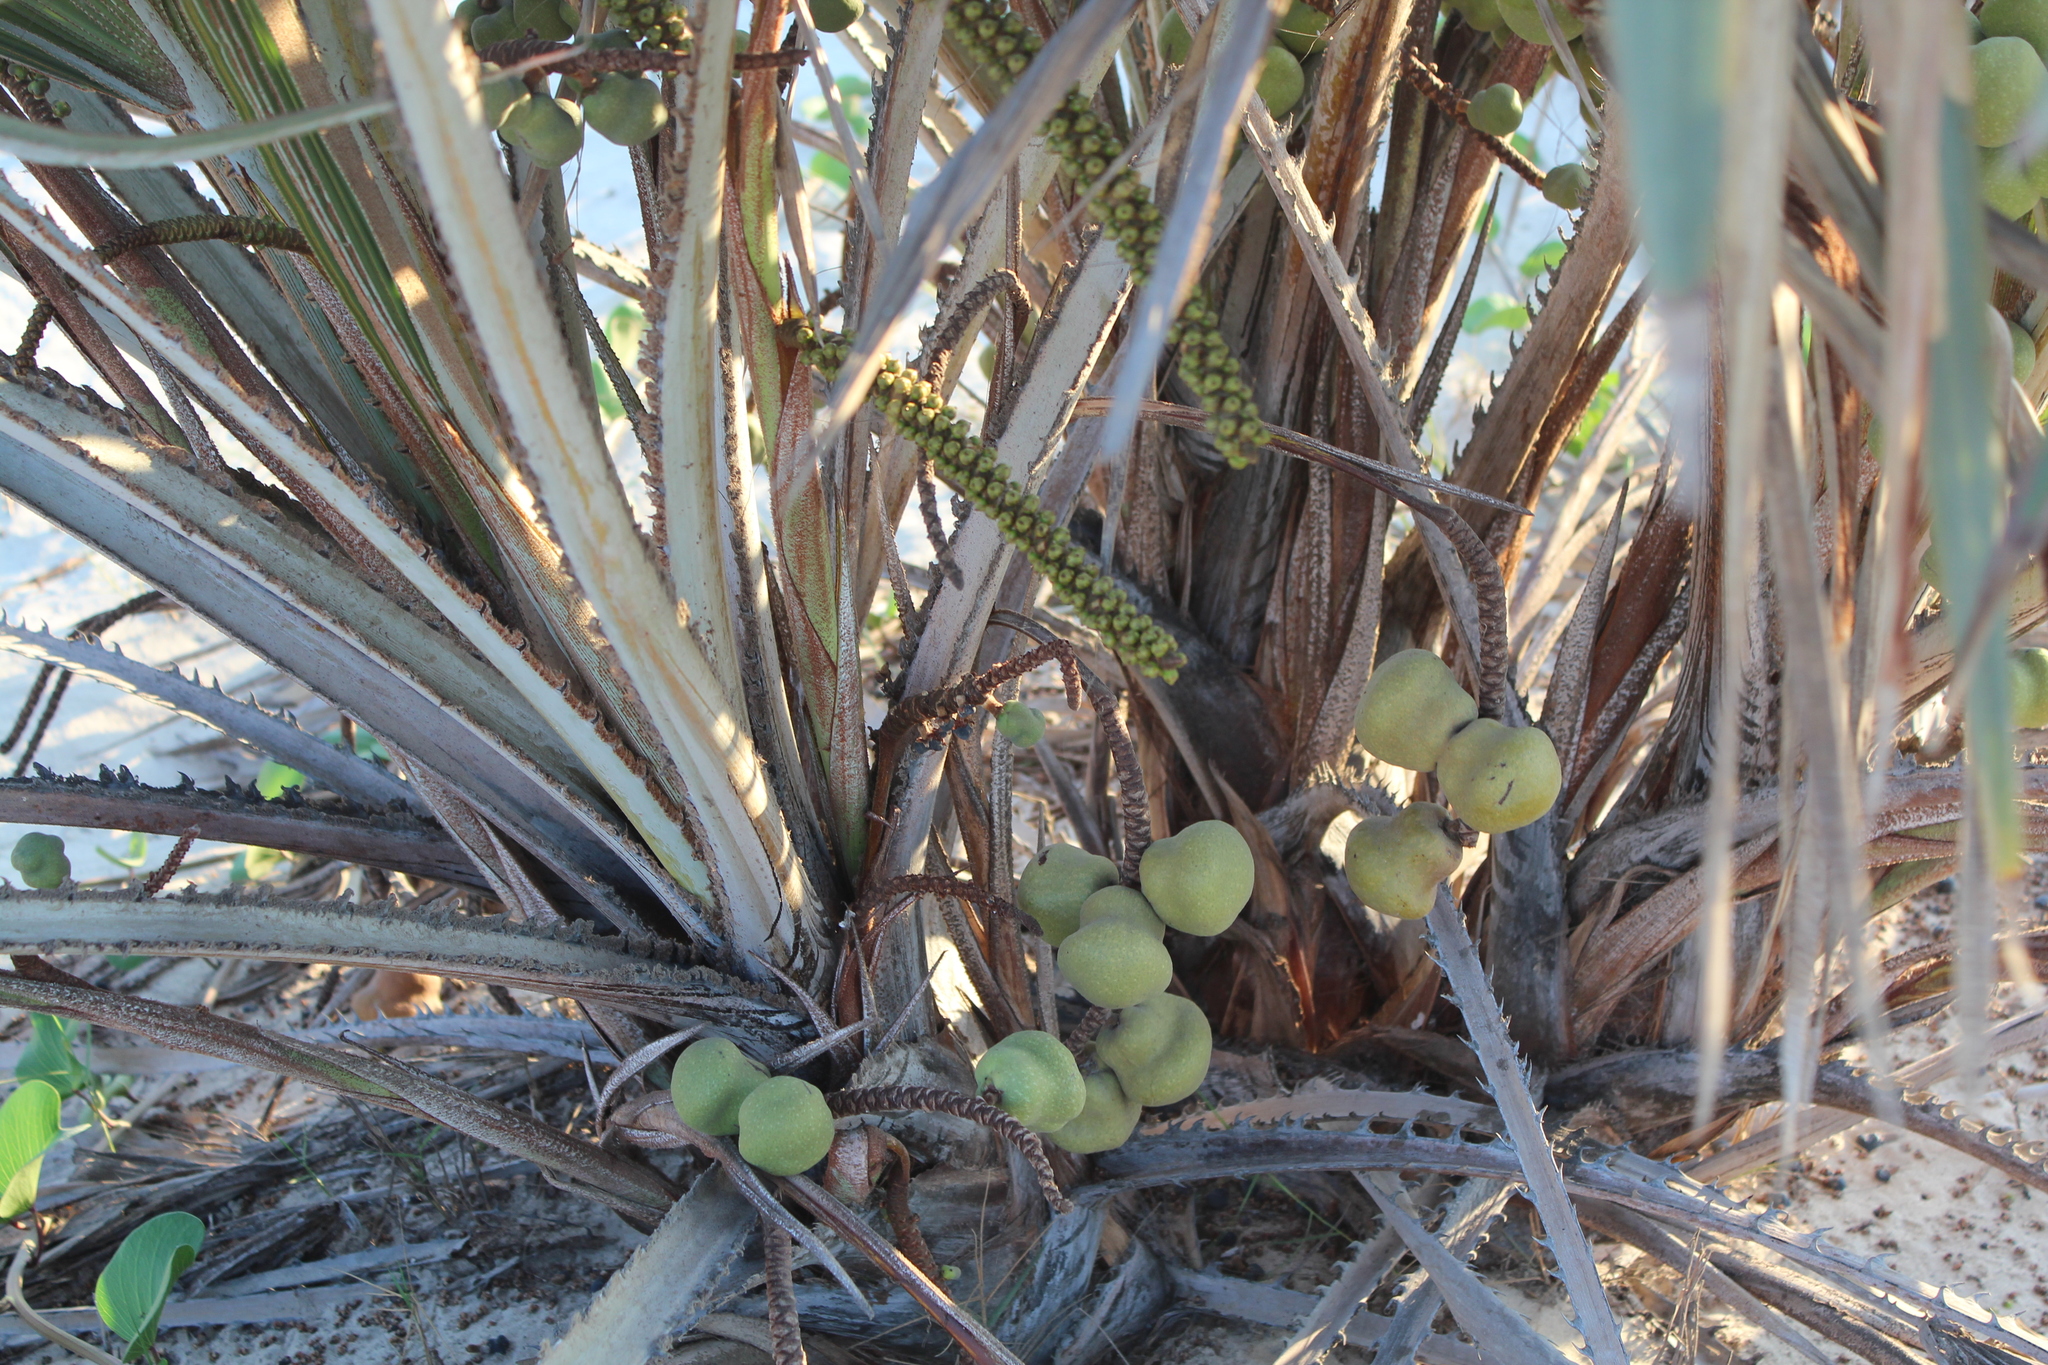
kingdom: Plantae
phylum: Tracheophyta
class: Liliopsida
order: Arecales
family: Arecaceae
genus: Hyphaene
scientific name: Hyphaene coriacea
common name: Ilala palm
